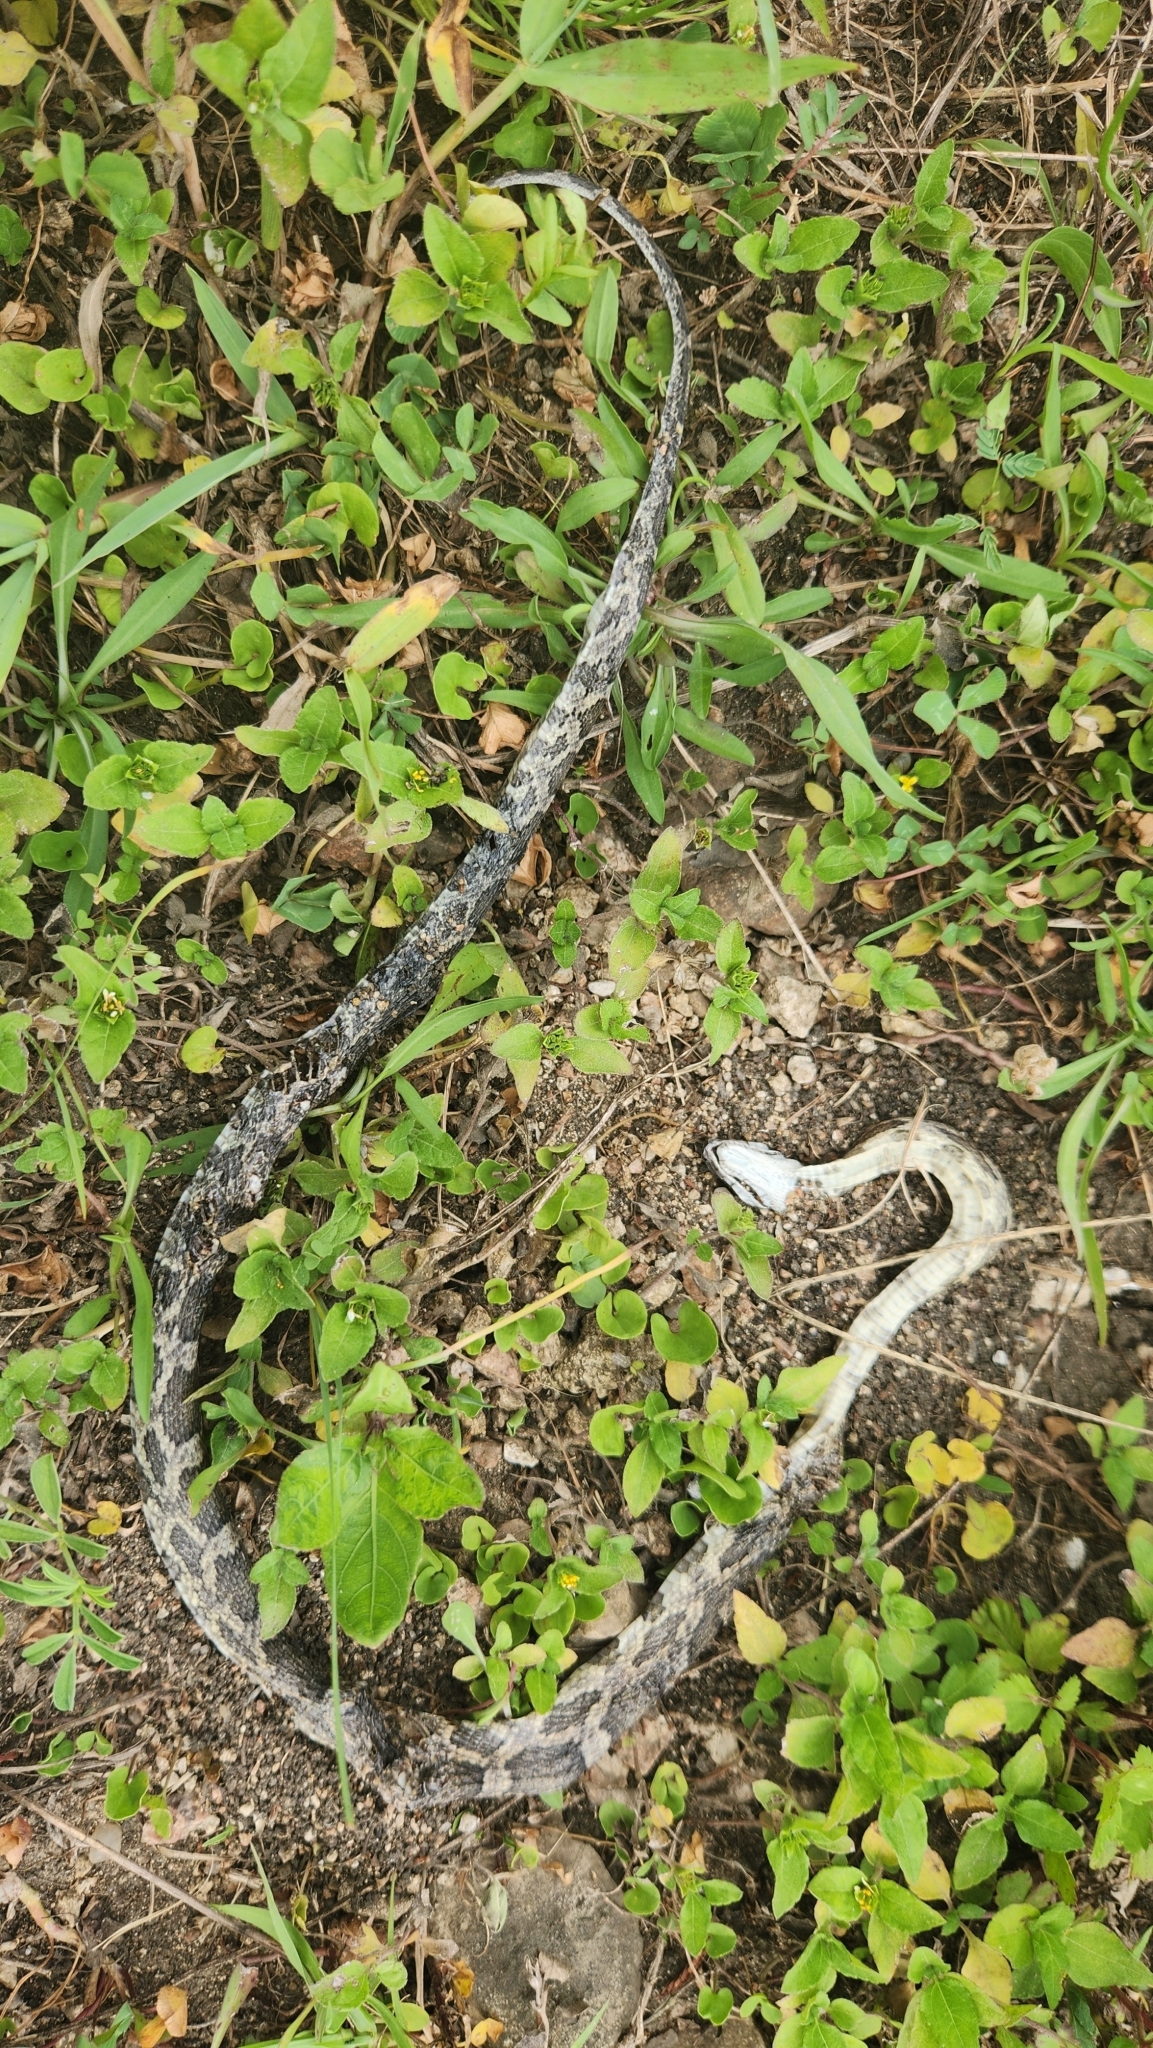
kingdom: Animalia
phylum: Chordata
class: Squamata
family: Colubridae
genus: Pantherophis
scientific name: Pantherophis obsoletus
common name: Black rat snake
